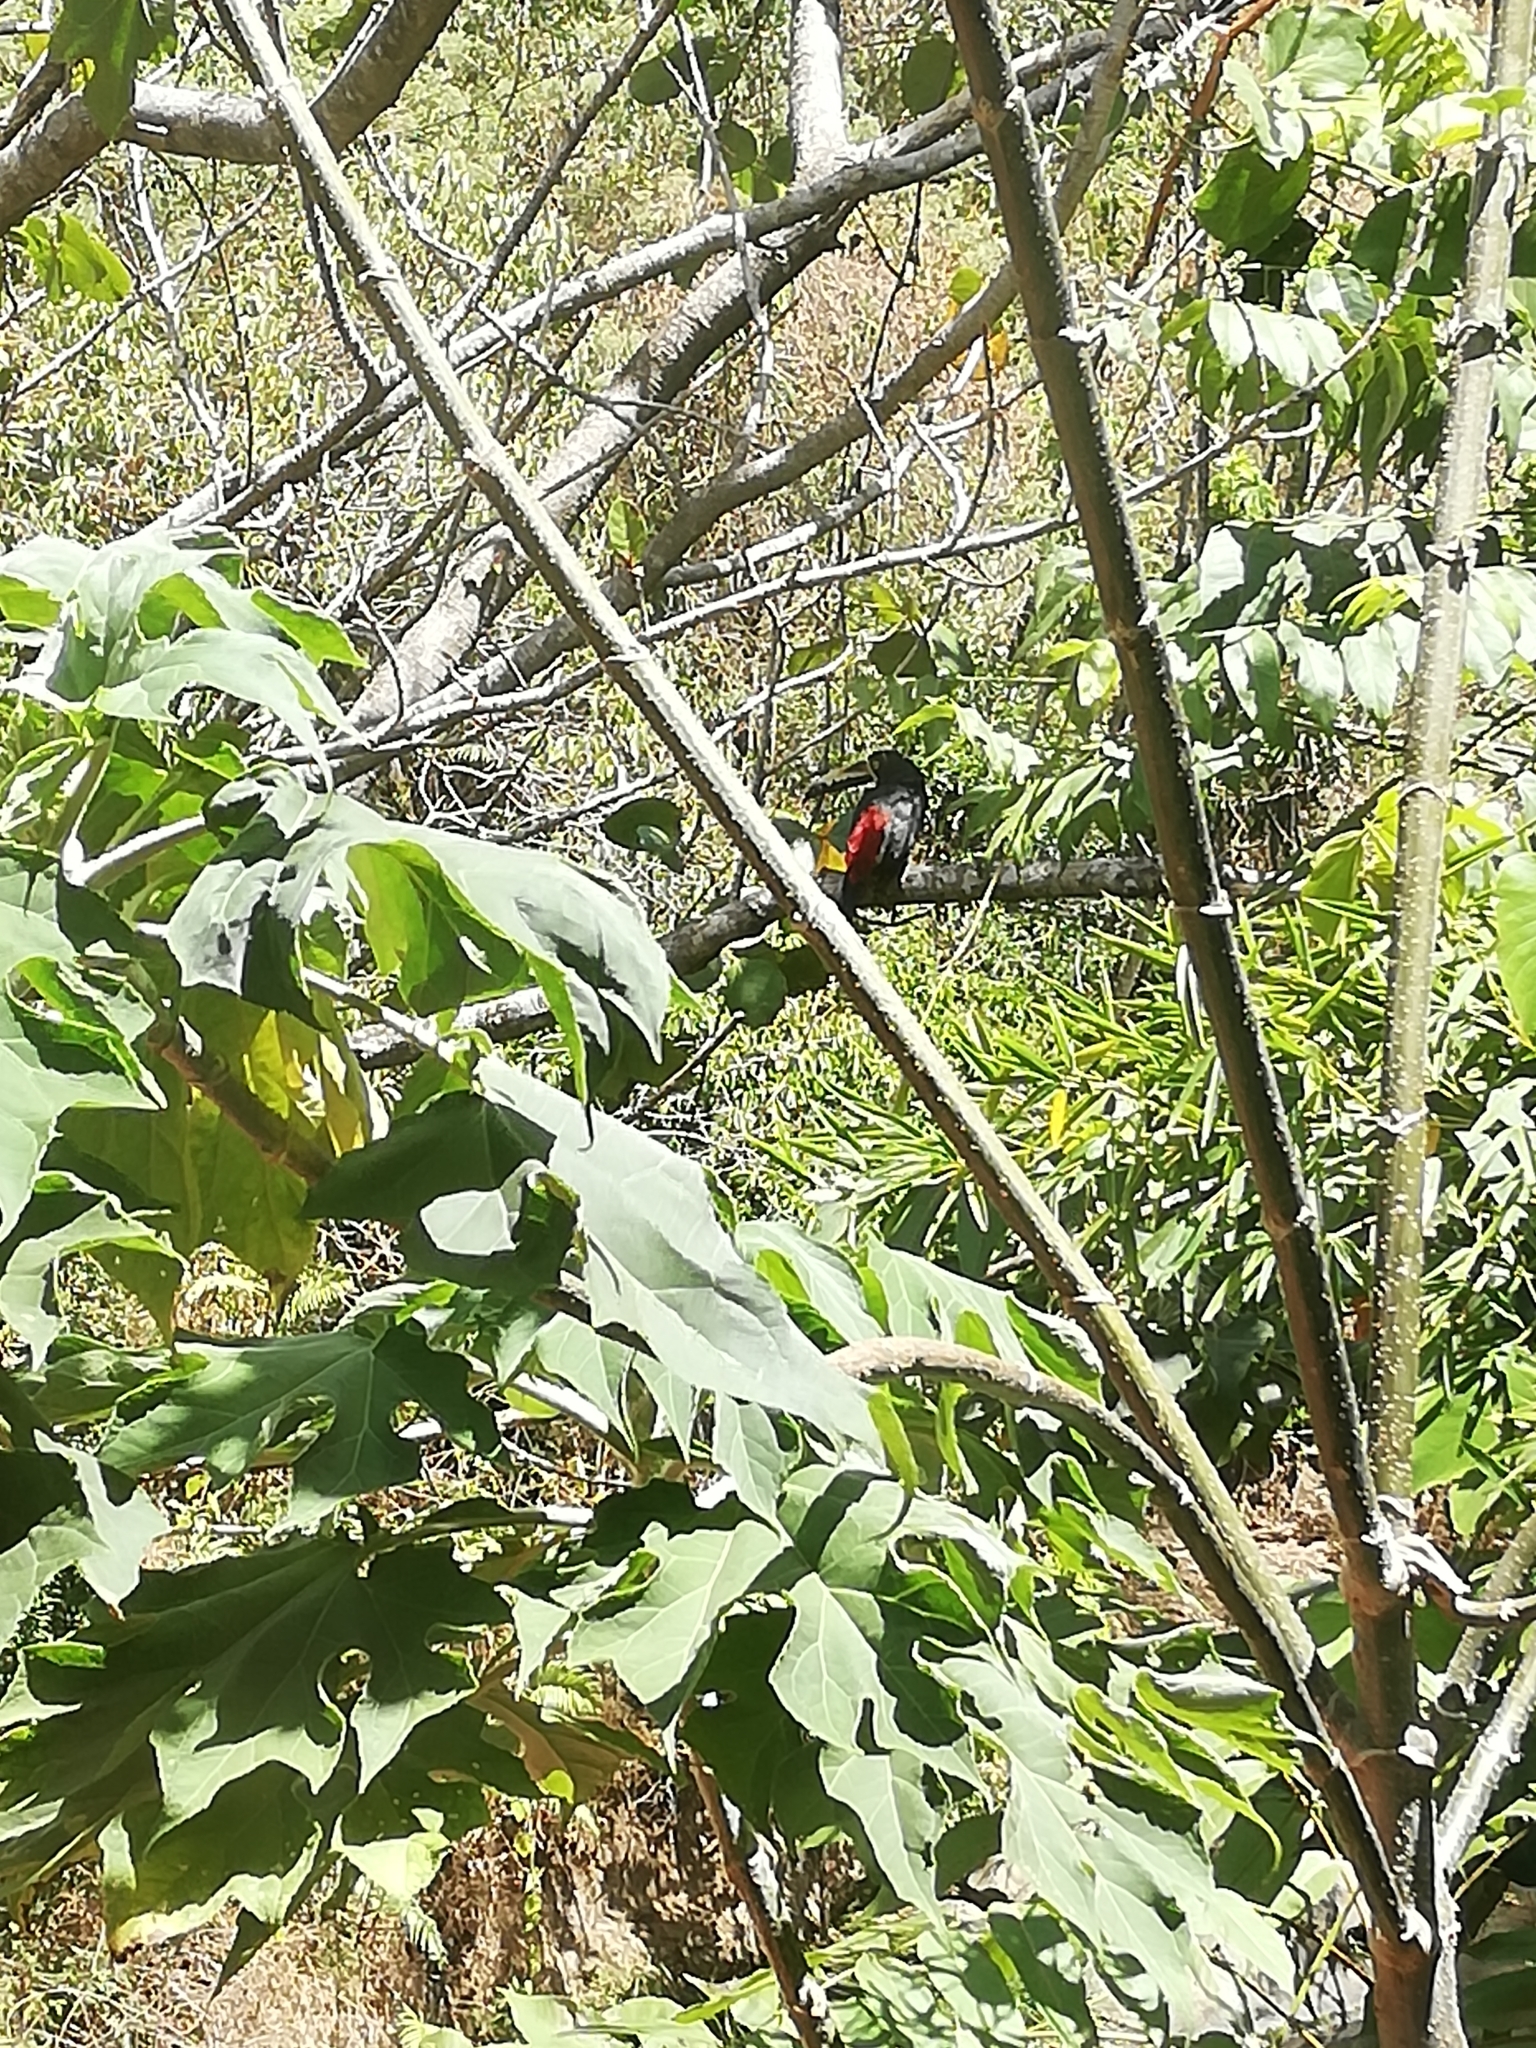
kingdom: Animalia
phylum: Chordata
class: Aves
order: Piciformes
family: Ramphastidae
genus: Pteroglossus
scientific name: Pteroglossus torquatus
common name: Collared aracari
